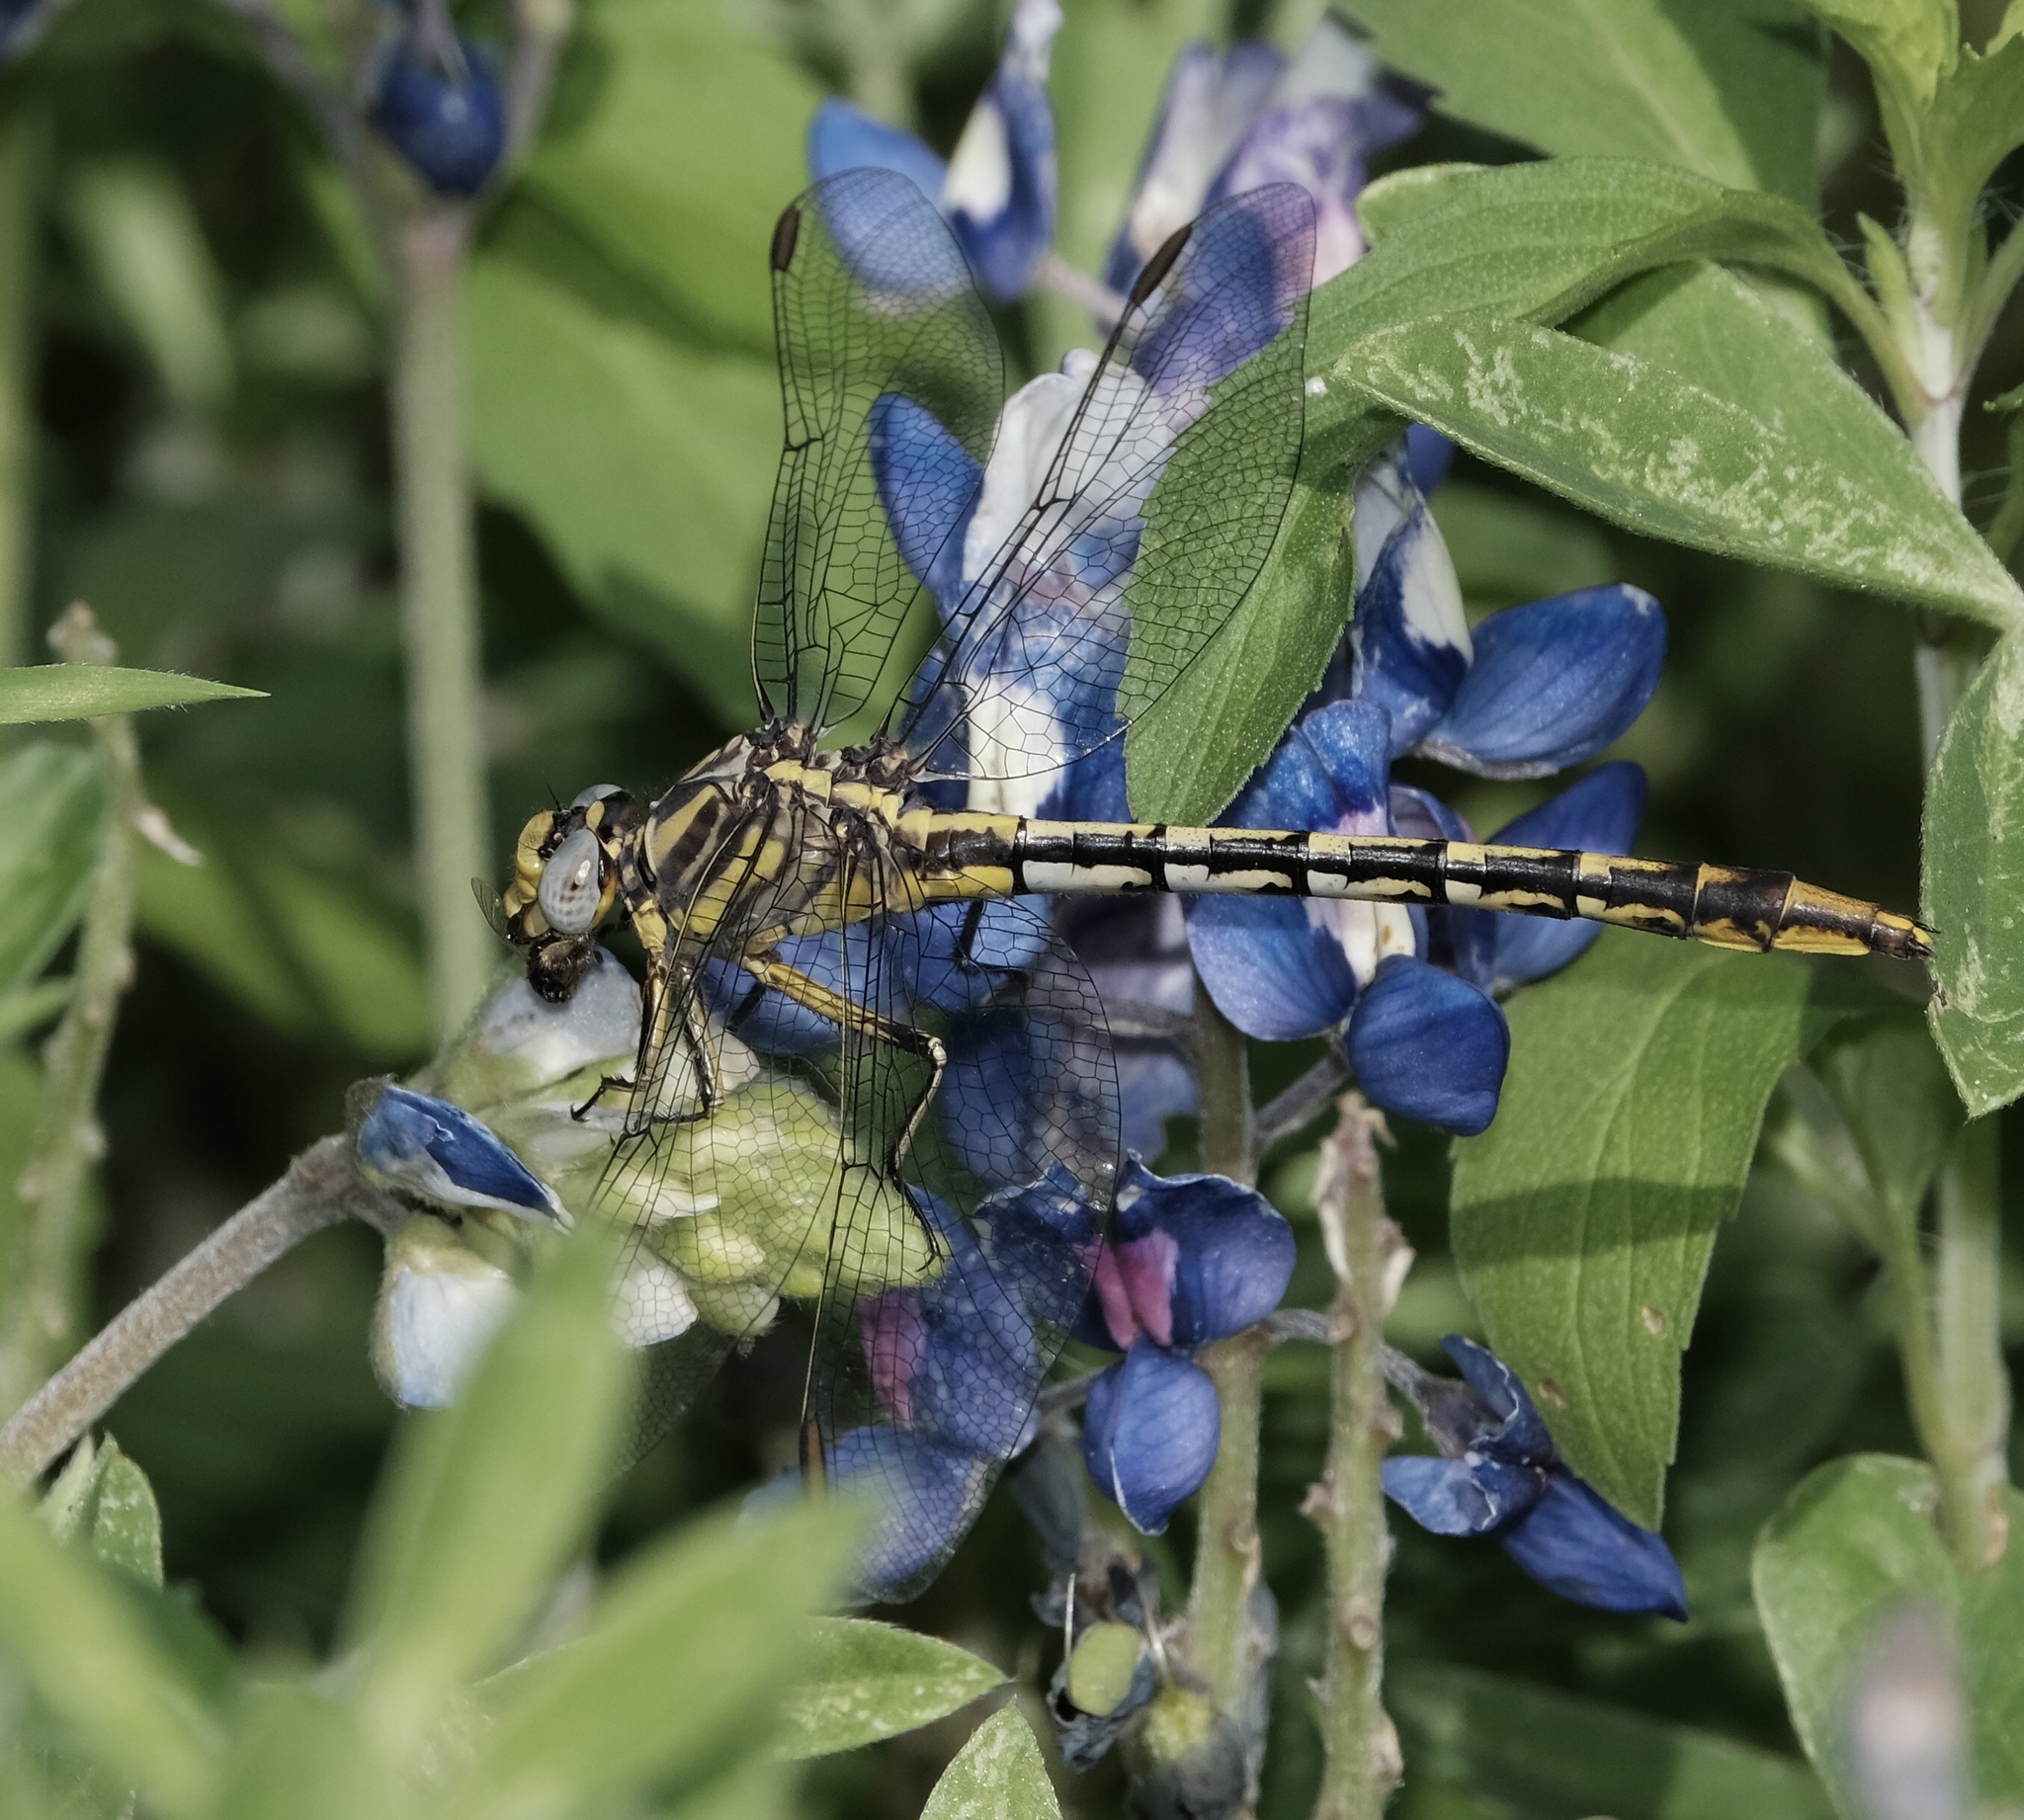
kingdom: Animalia
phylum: Arthropoda
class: Insecta
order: Odonata
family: Gomphidae
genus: Phanogomphus
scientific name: Phanogomphus militaris
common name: Sulphur-tipped clubtail
